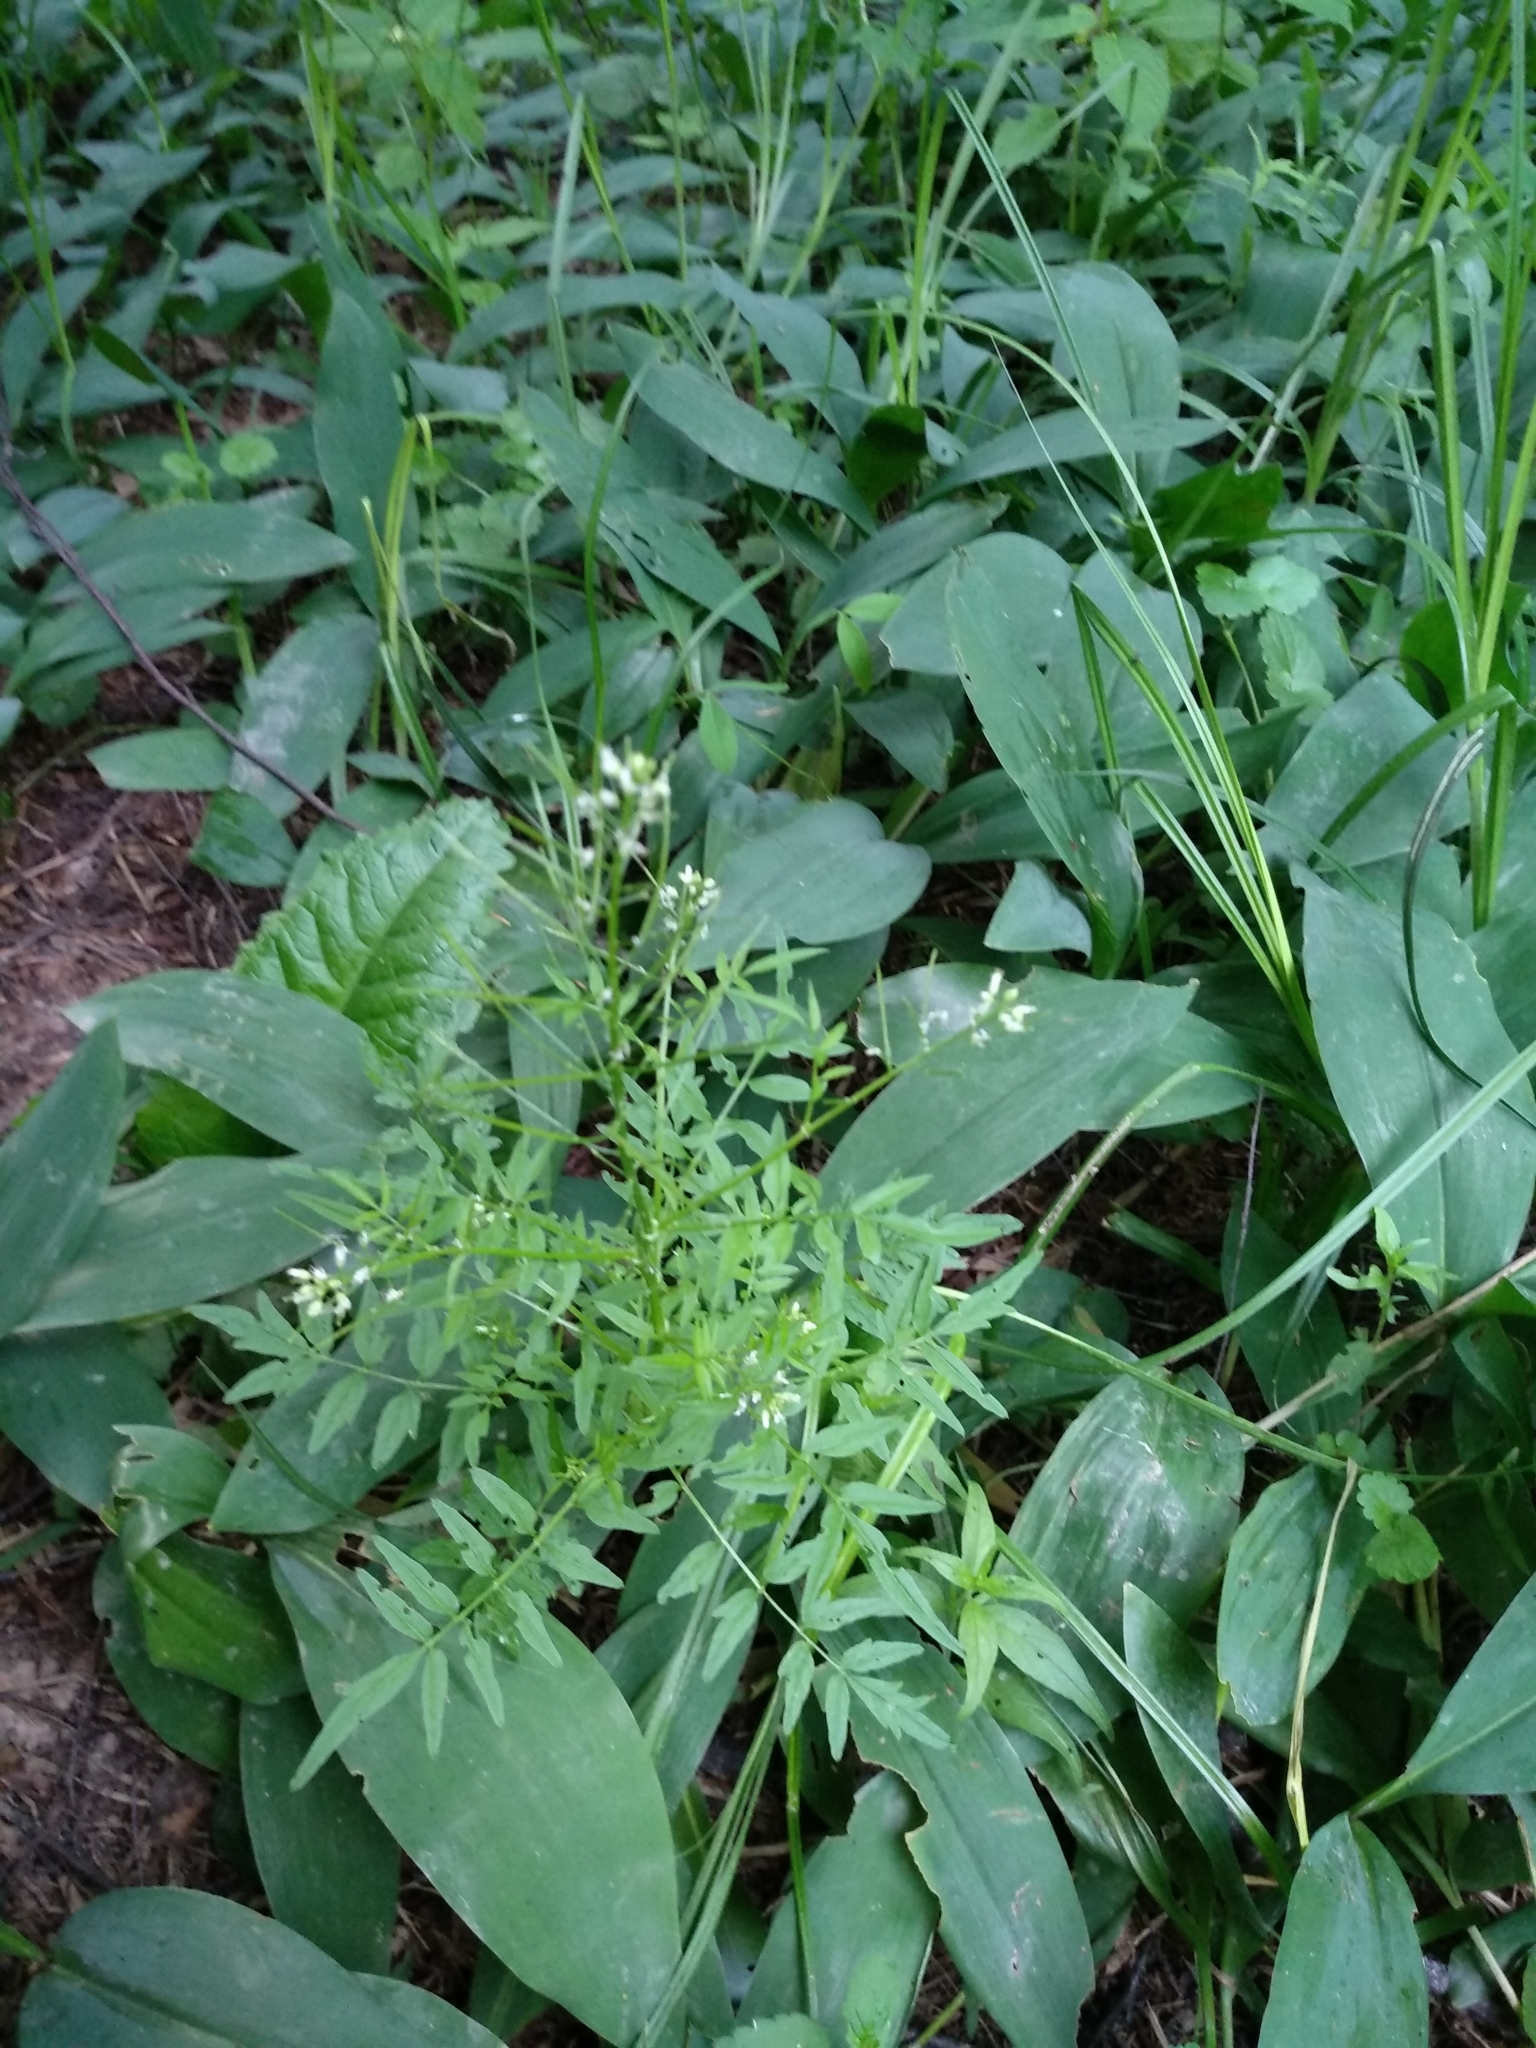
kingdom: Plantae
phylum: Tracheophyta
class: Magnoliopsida
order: Brassicales
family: Brassicaceae
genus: Cardamine
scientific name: Cardamine impatiens
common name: Narrow-leaved bitter-cress
